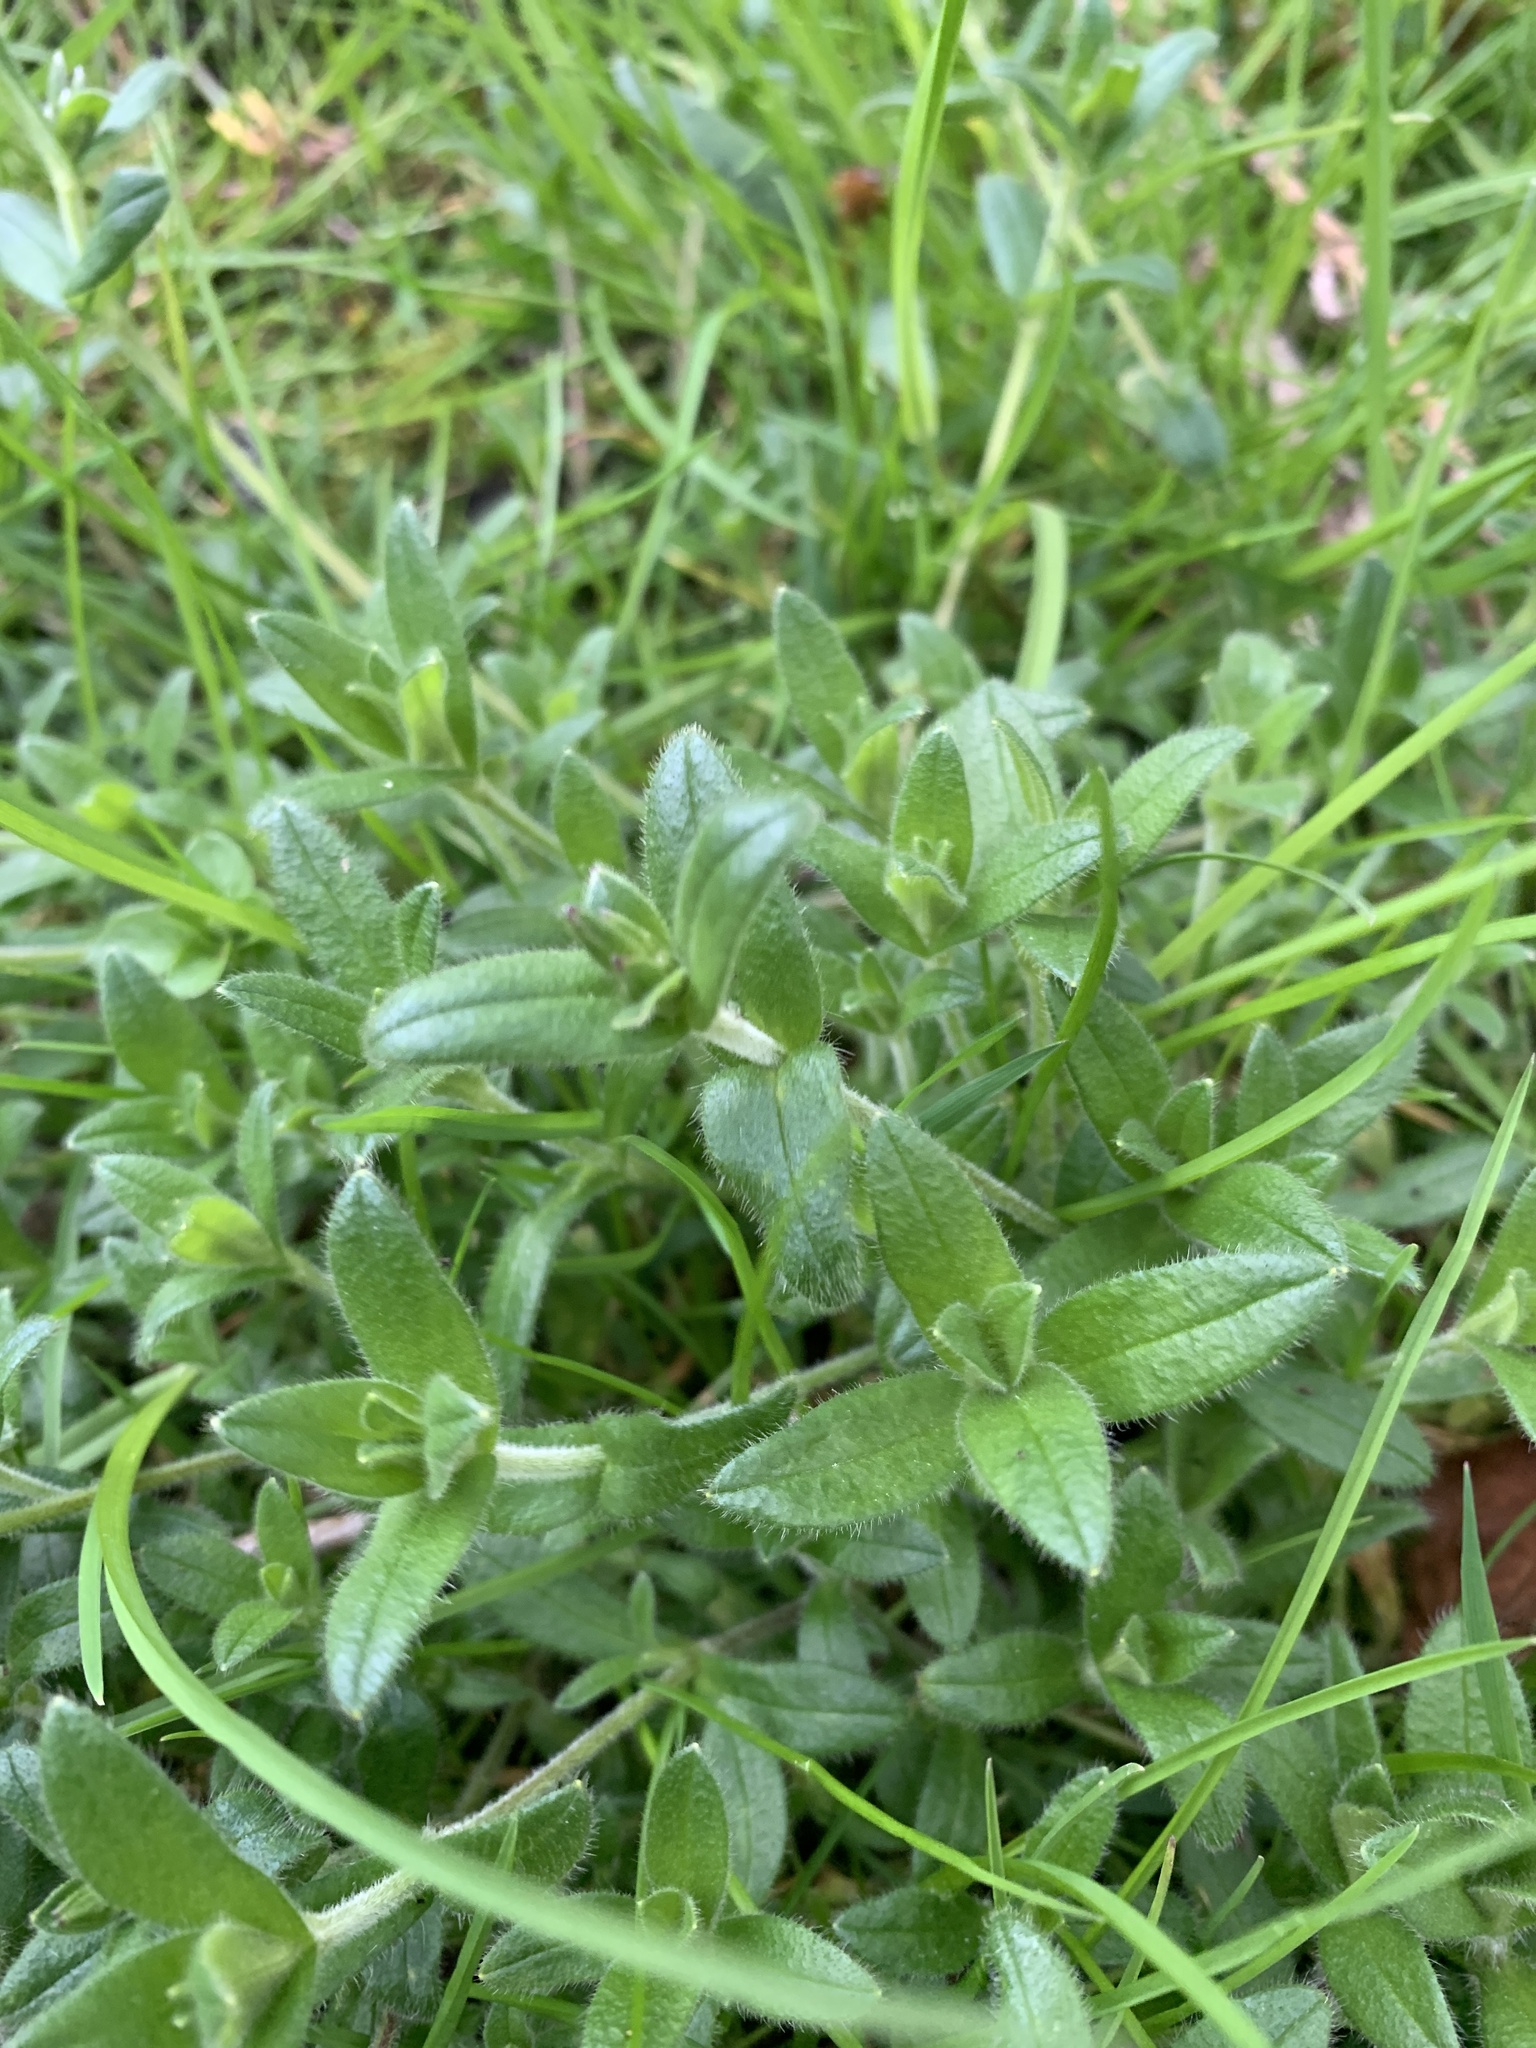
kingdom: Plantae
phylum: Tracheophyta
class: Magnoliopsida
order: Caryophyllales
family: Caryophyllaceae
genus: Cerastium
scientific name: Cerastium fontanum
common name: Common mouse-ear
